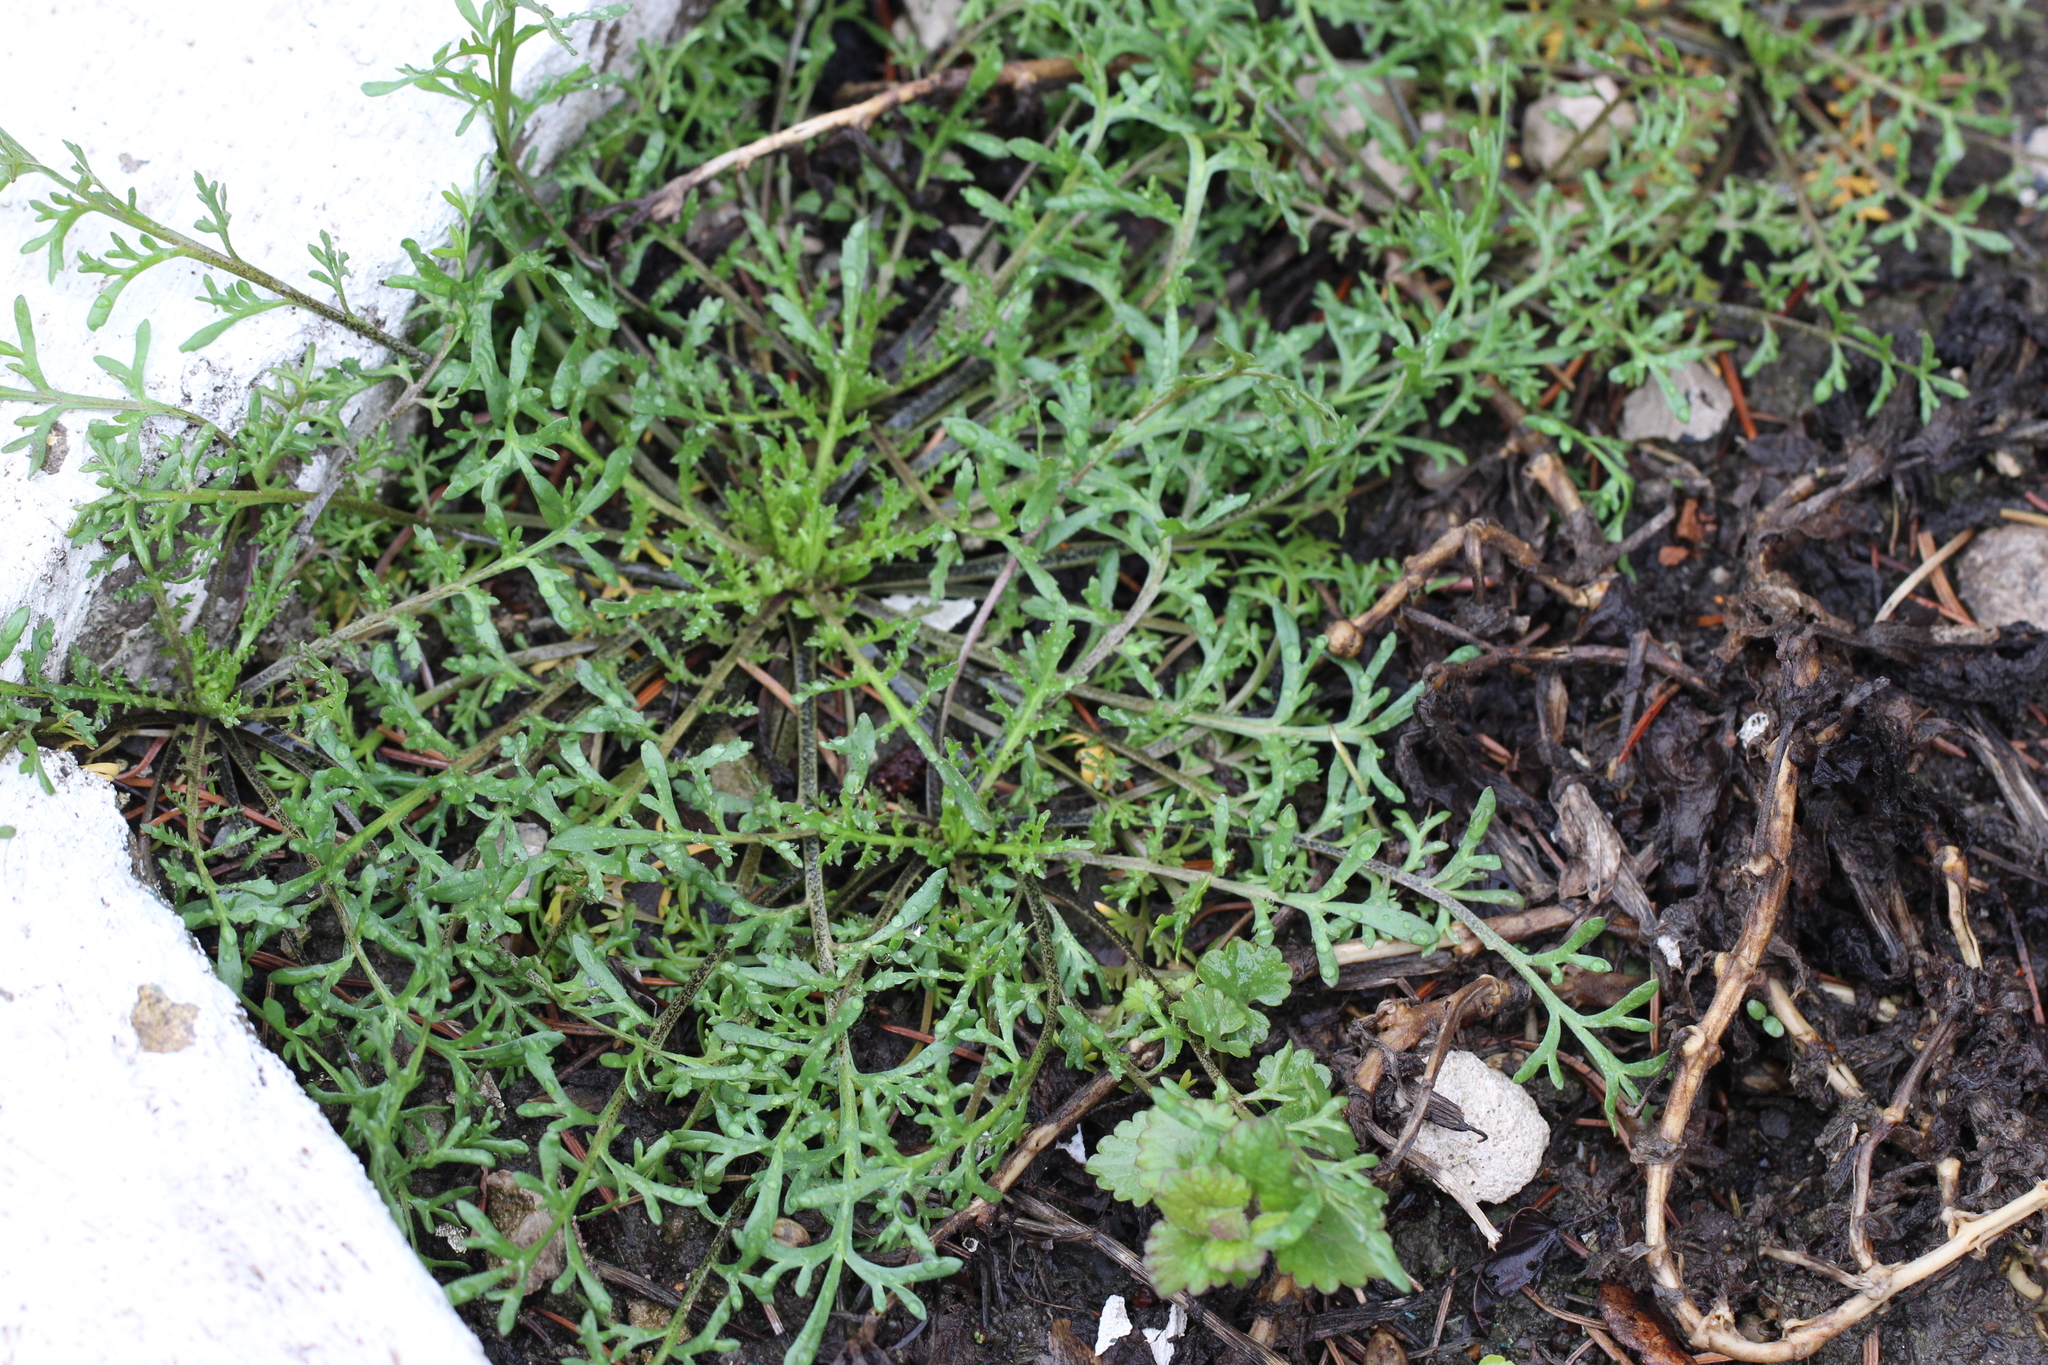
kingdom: Plantae
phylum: Tracheophyta
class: Magnoliopsida
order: Brassicales
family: Brassicaceae
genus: Lepidium
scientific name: Lepidium ruderale
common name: Narrow-leaved pepperwort
